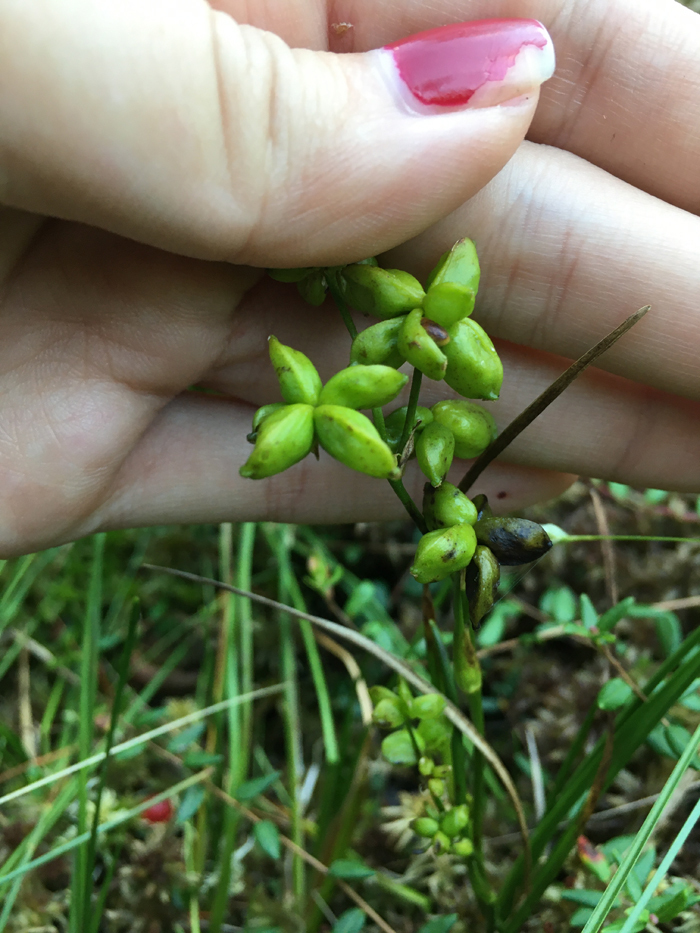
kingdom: Plantae
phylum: Tracheophyta
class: Liliopsida
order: Alismatales
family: Scheuchzeriaceae
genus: Scheuchzeria
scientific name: Scheuchzeria palustris
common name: Rannoch-rush
